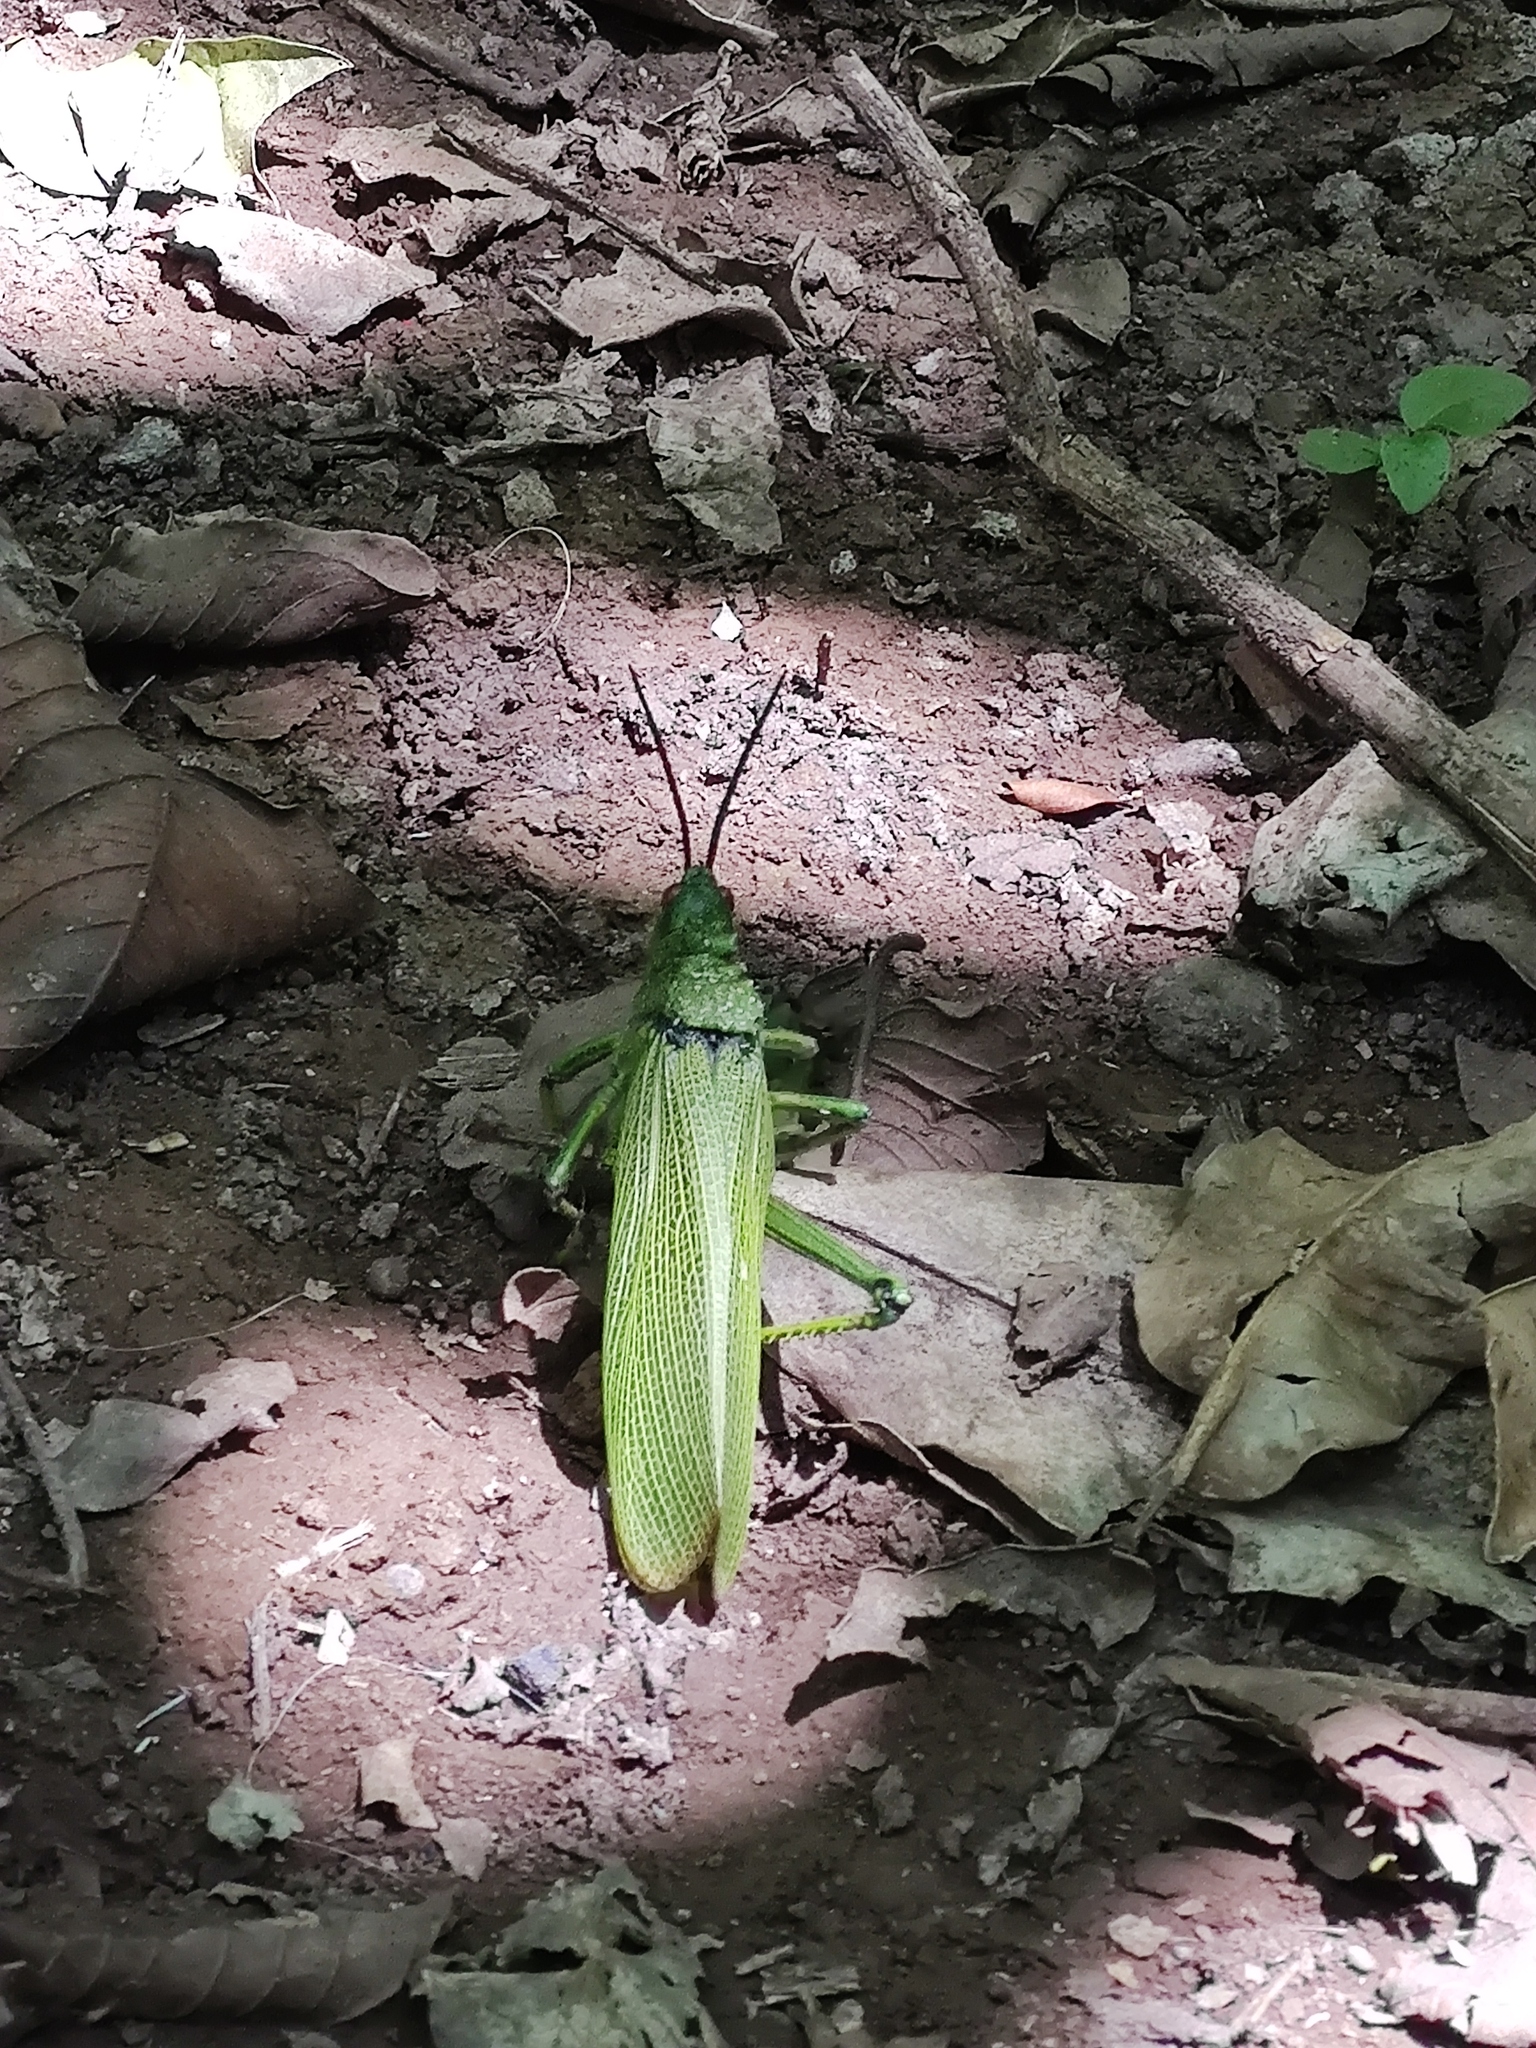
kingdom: Animalia
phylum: Arthropoda
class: Insecta
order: Orthoptera
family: Pyrgomorphidae
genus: Phymateus
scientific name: Phymateus viridipes
